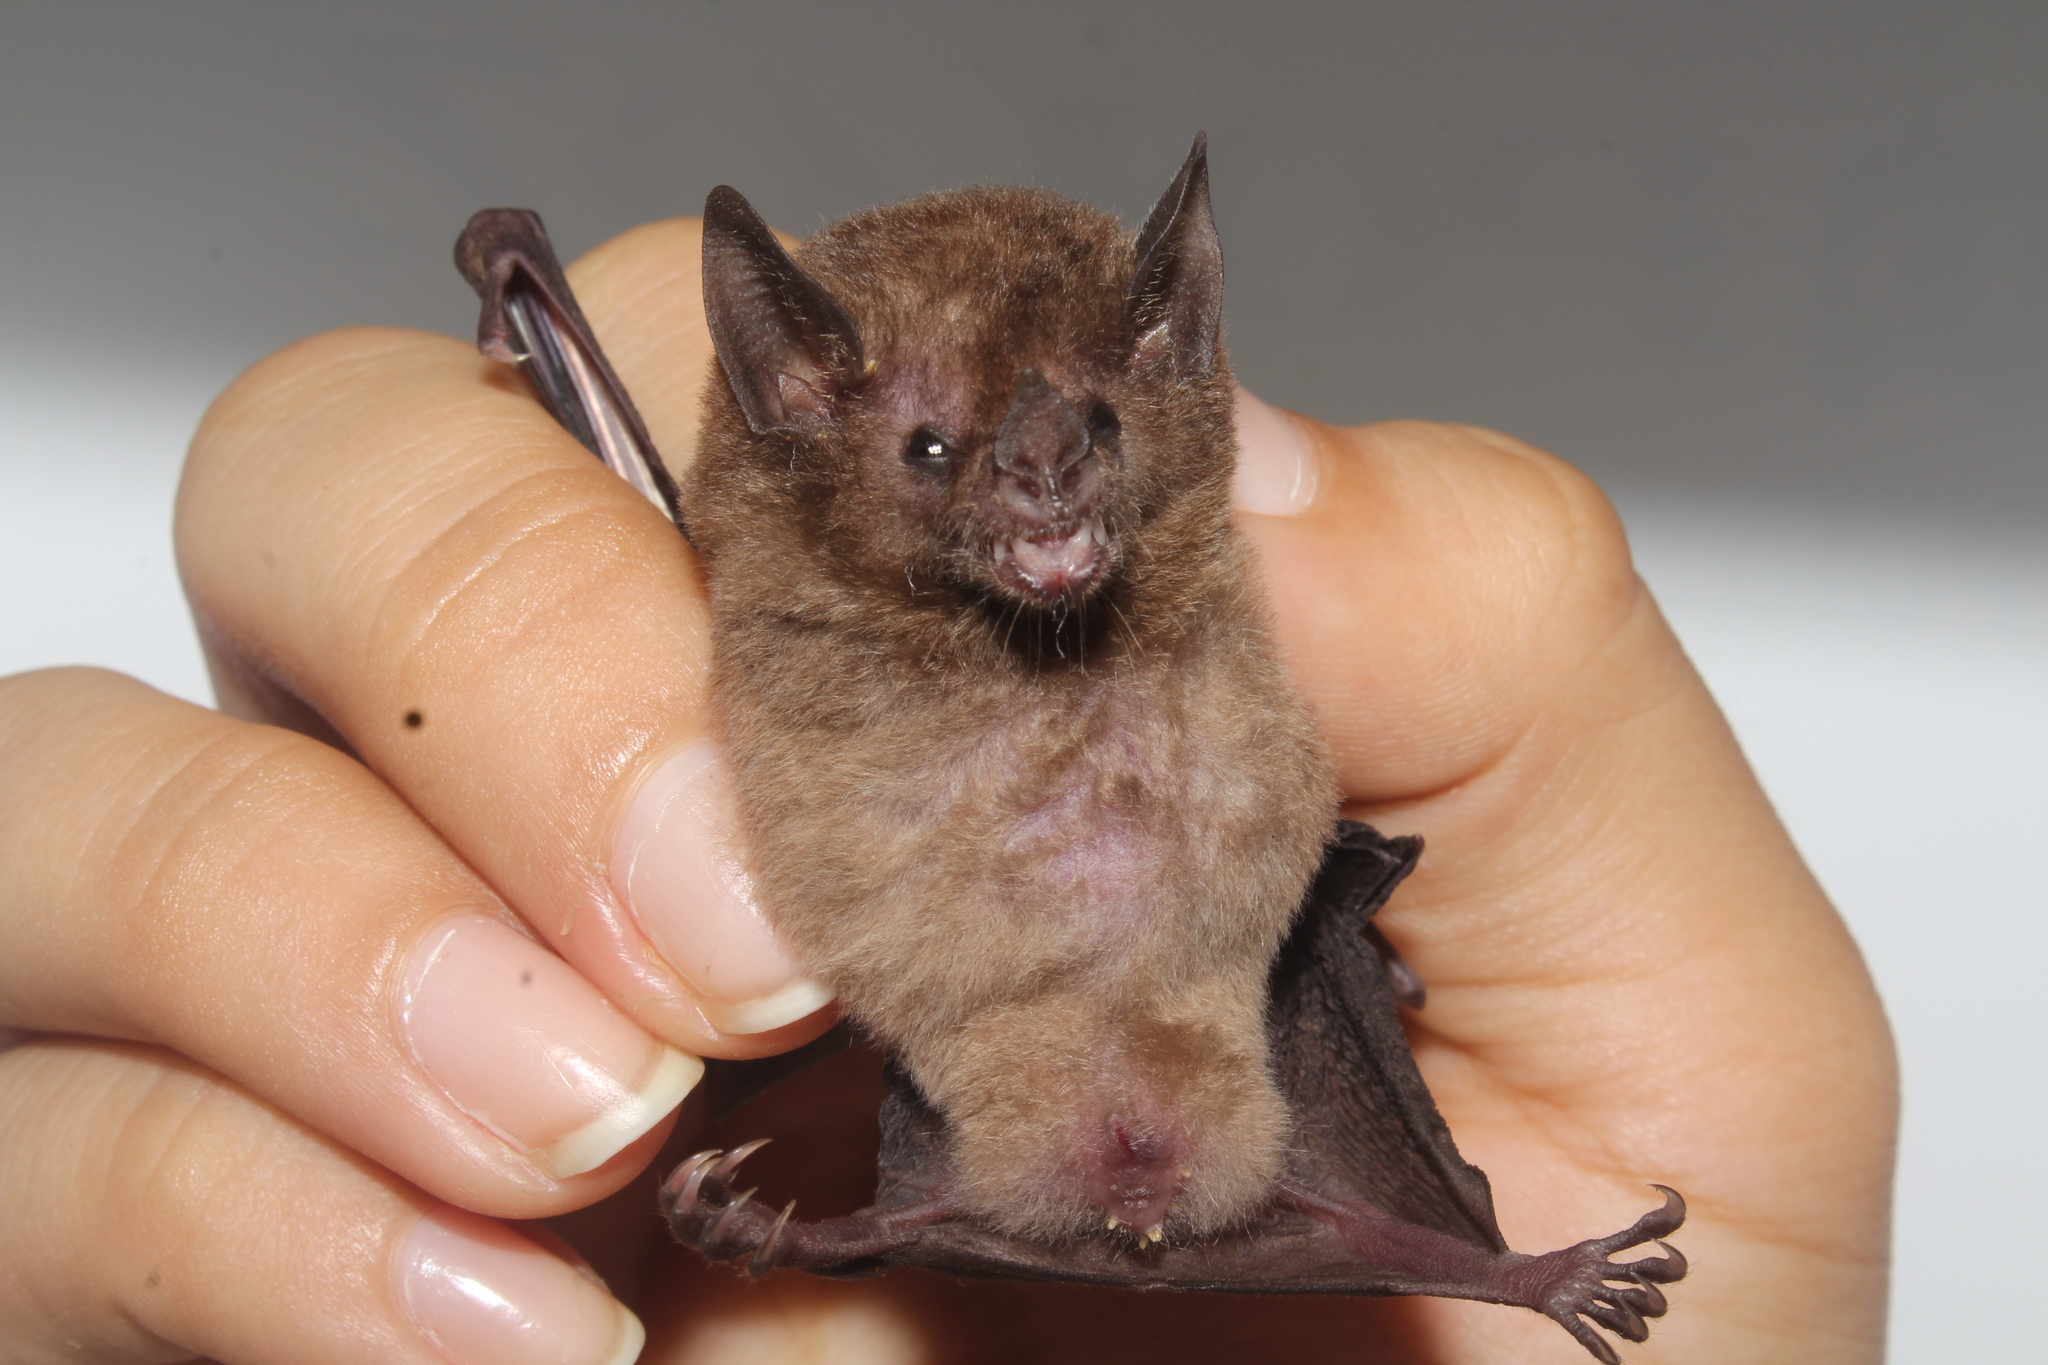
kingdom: Animalia
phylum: Chordata
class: Mammalia
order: Chiroptera
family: Phyllostomidae
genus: Hsunycteris
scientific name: Hsunycteris thomasi
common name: Thomas's nectar bat
